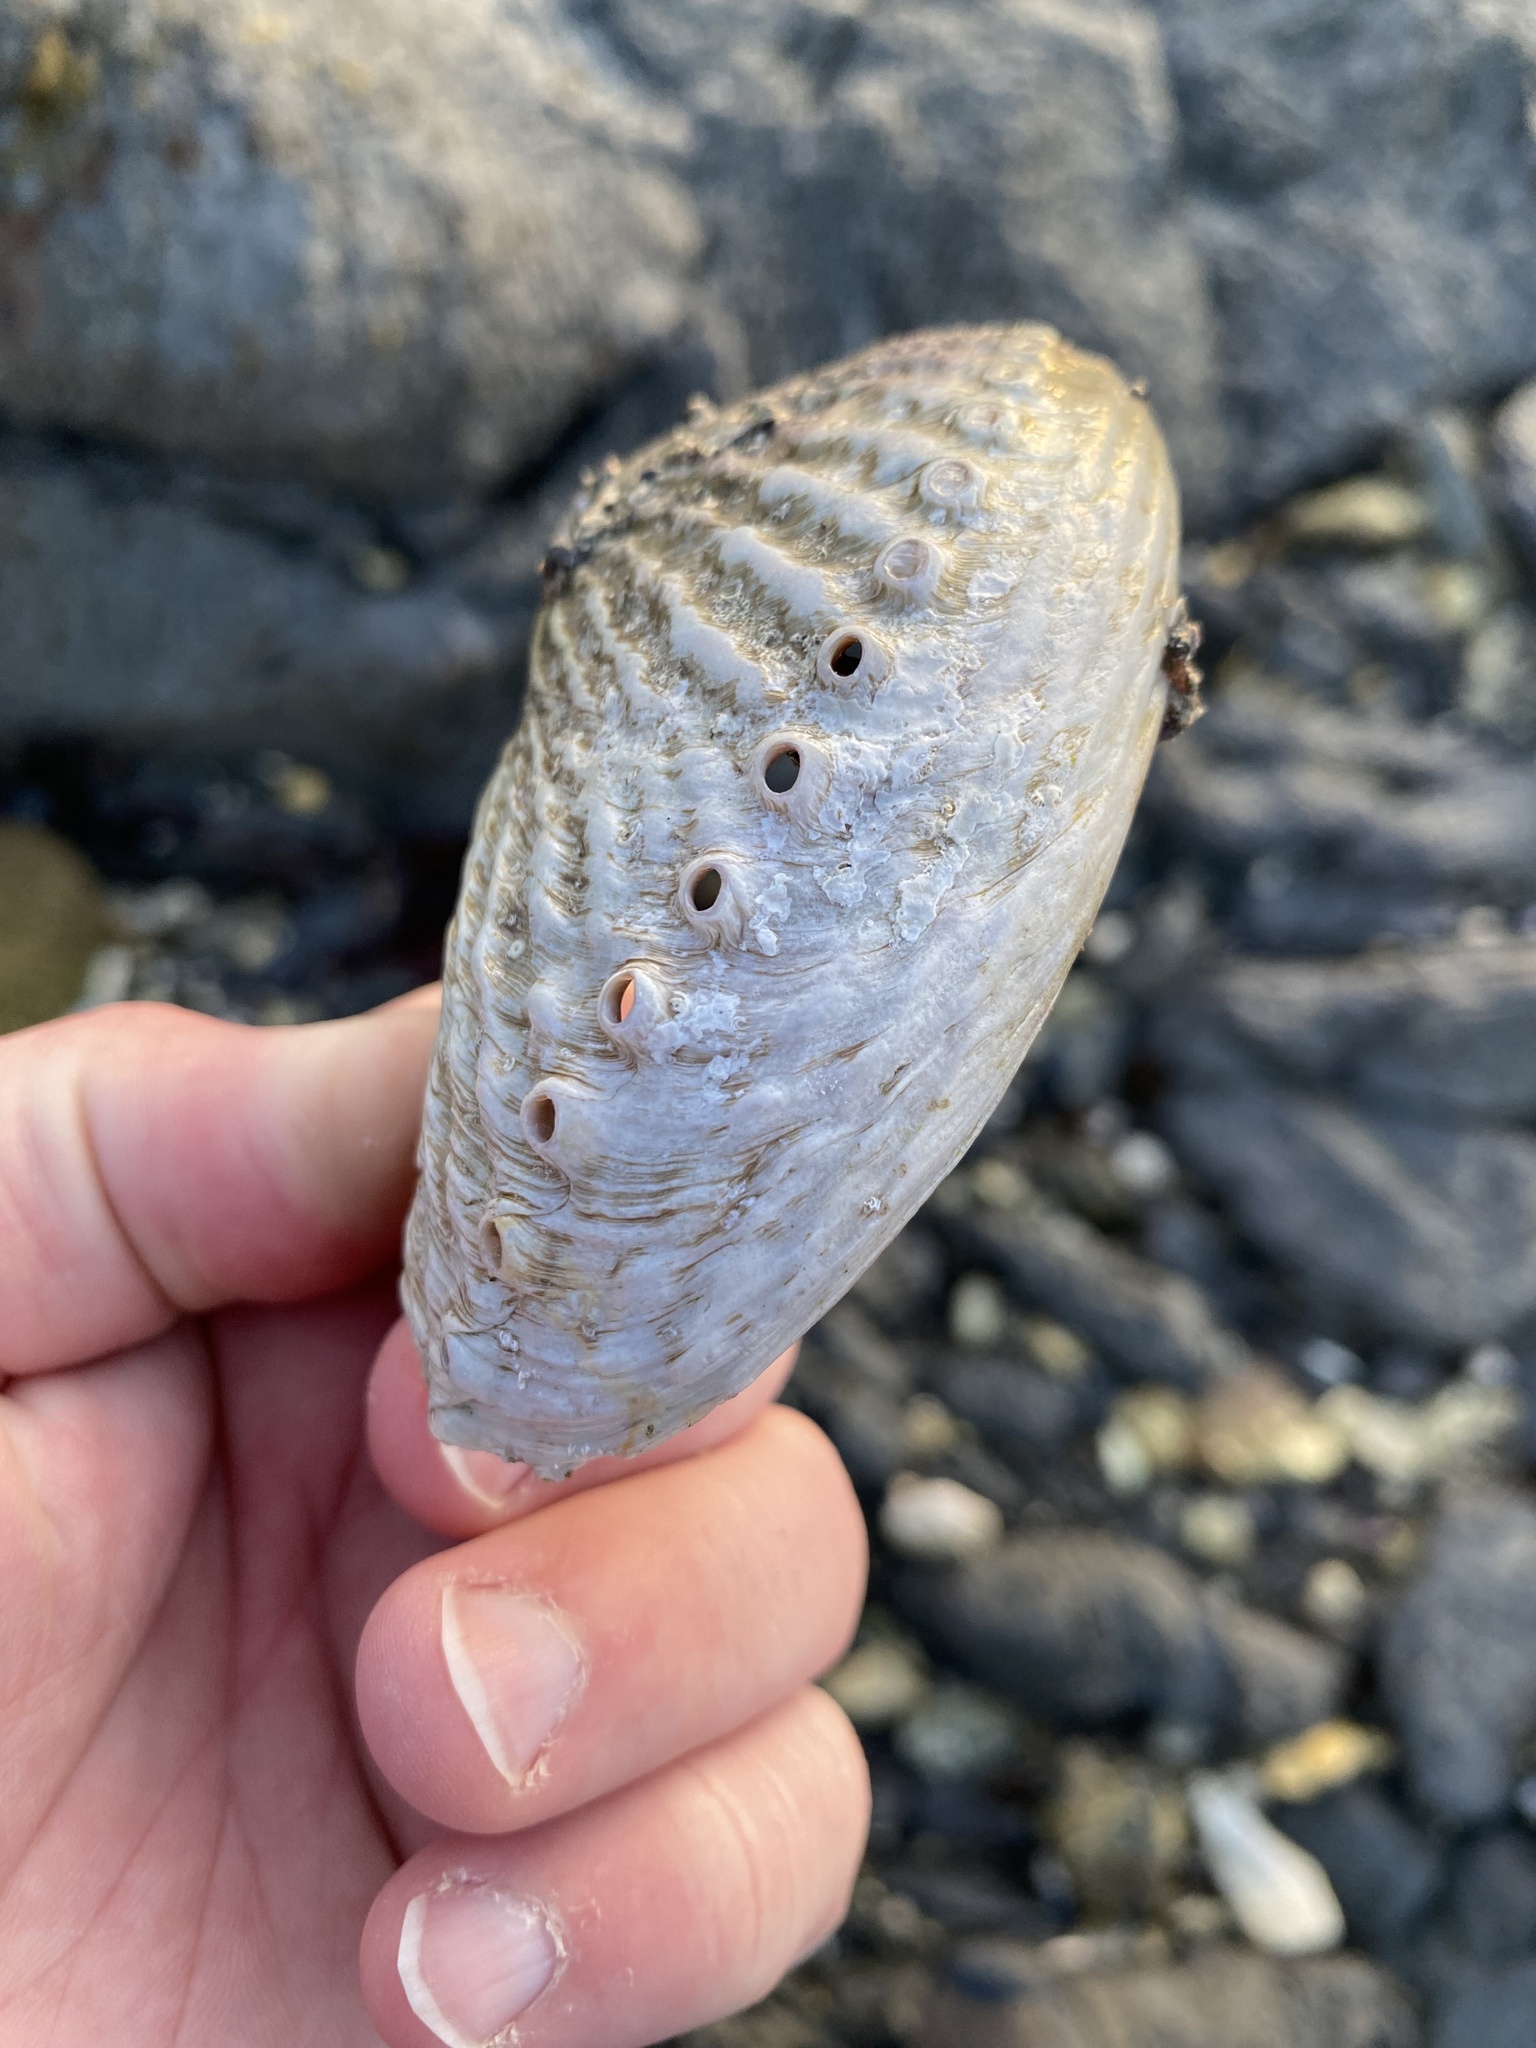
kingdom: Animalia
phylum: Mollusca
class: Gastropoda
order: Lepetellida
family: Haliotidae
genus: Haliotis
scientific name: Haliotis australis
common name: Silver abalone
